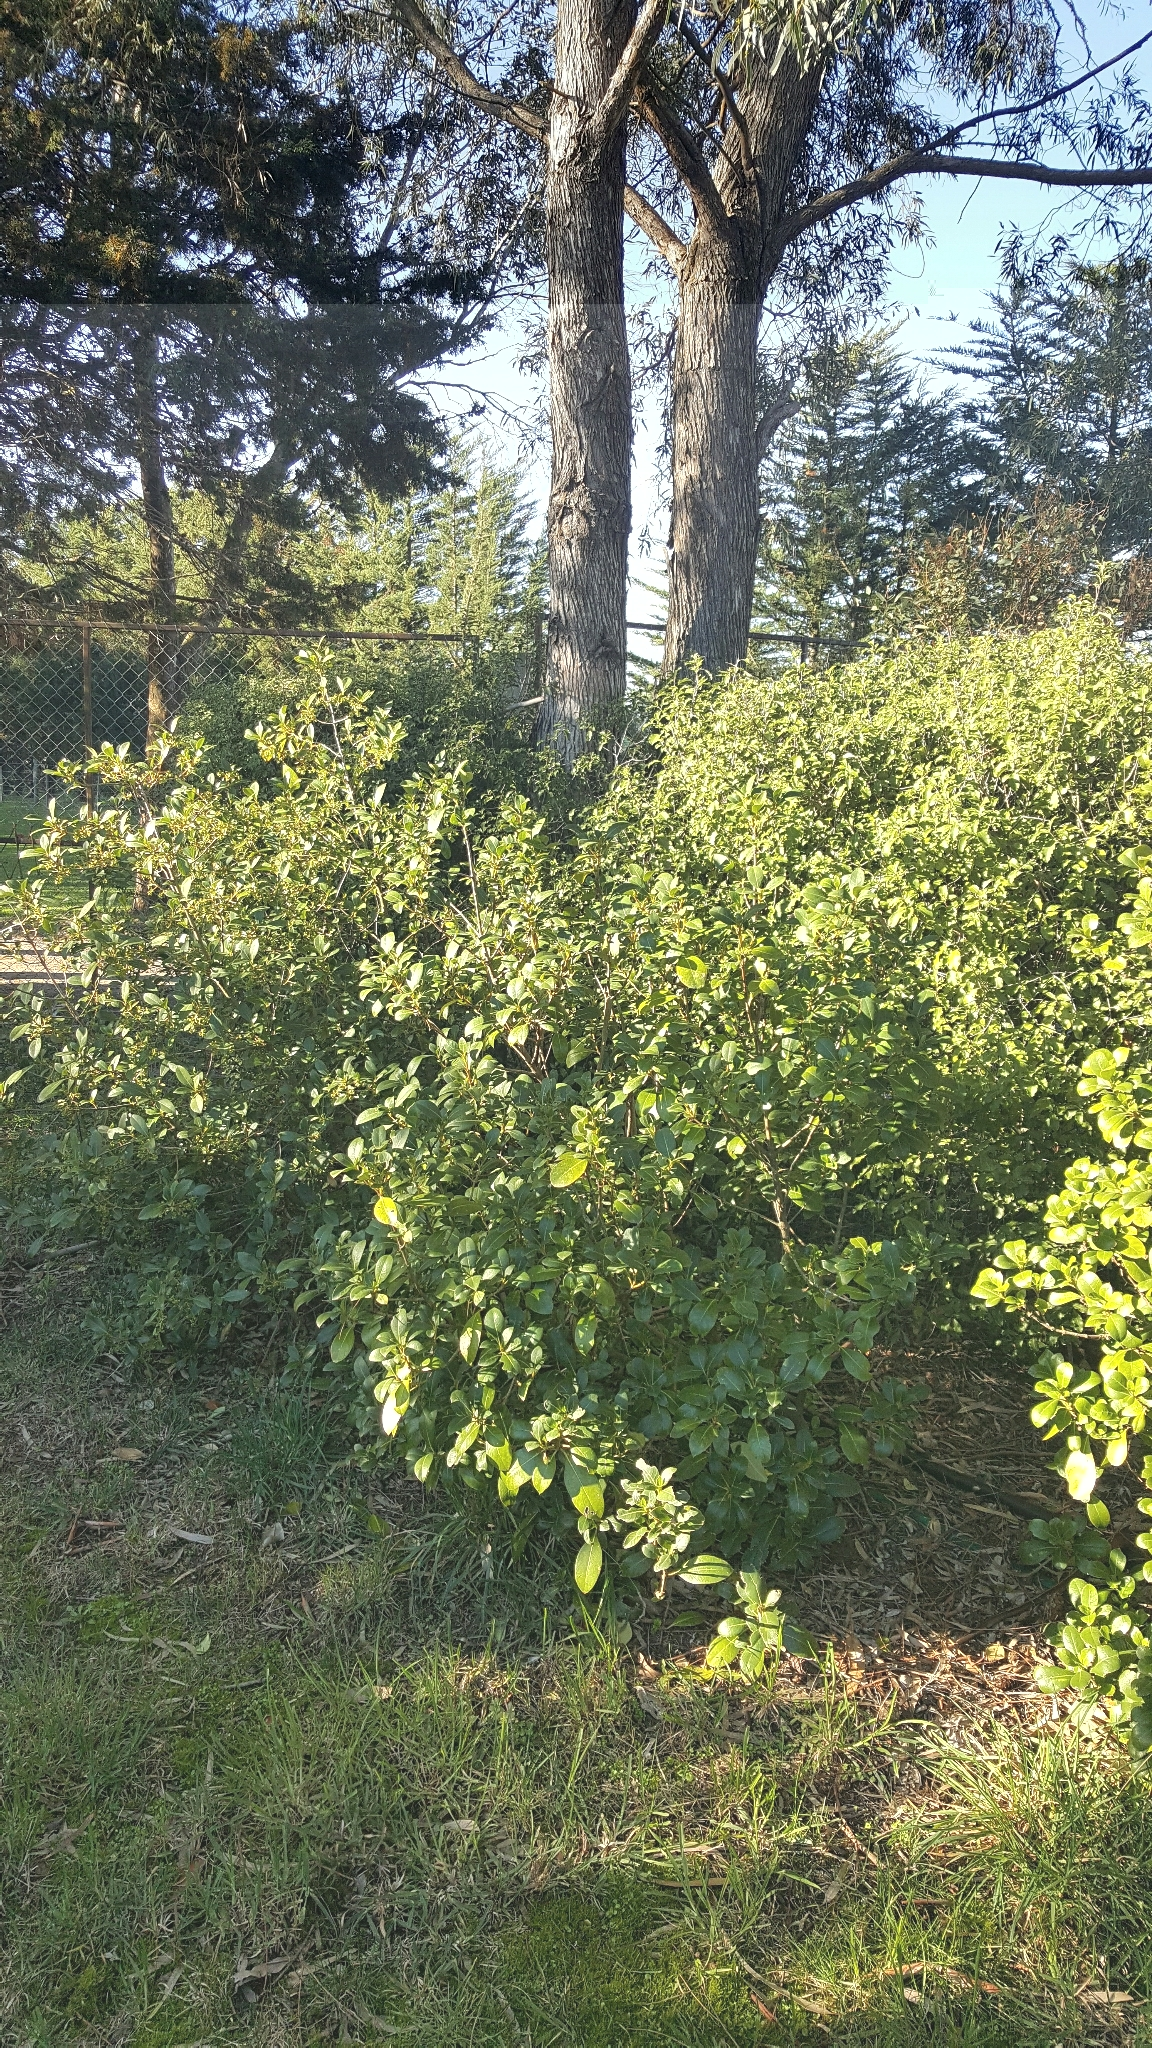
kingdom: Plantae
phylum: Tracheophyta
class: Magnoliopsida
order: Gentianales
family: Rubiaceae
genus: Coprosma
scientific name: Coprosma lucida
